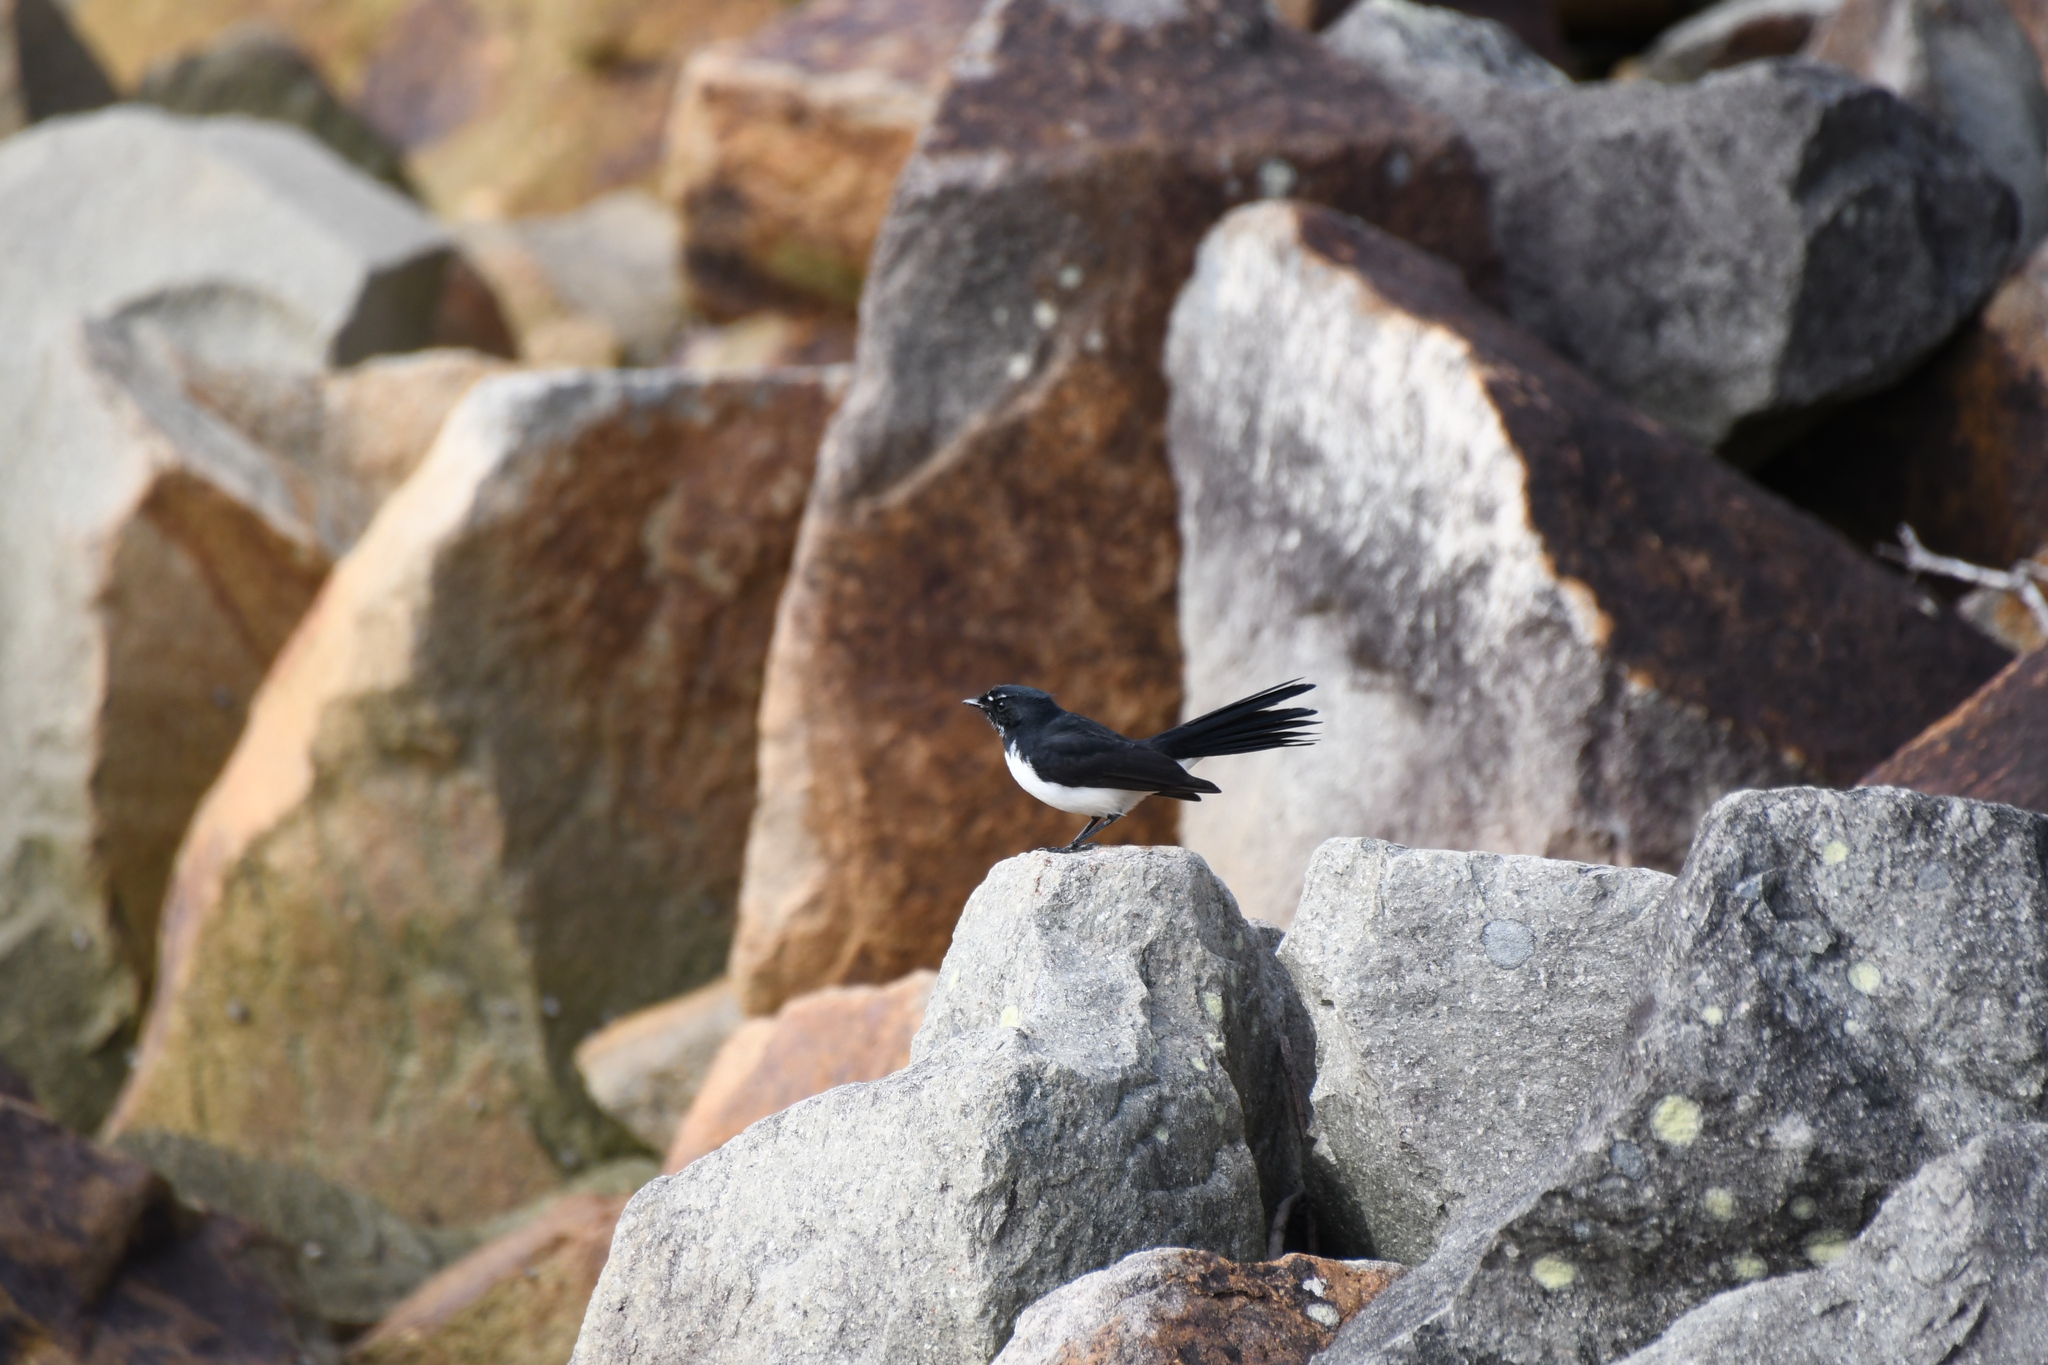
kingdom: Animalia
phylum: Chordata
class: Aves
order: Passeriformes
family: Rhipiduridae
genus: Rhipidura
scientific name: Rhipidura leucophrys
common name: Willie wagtail
